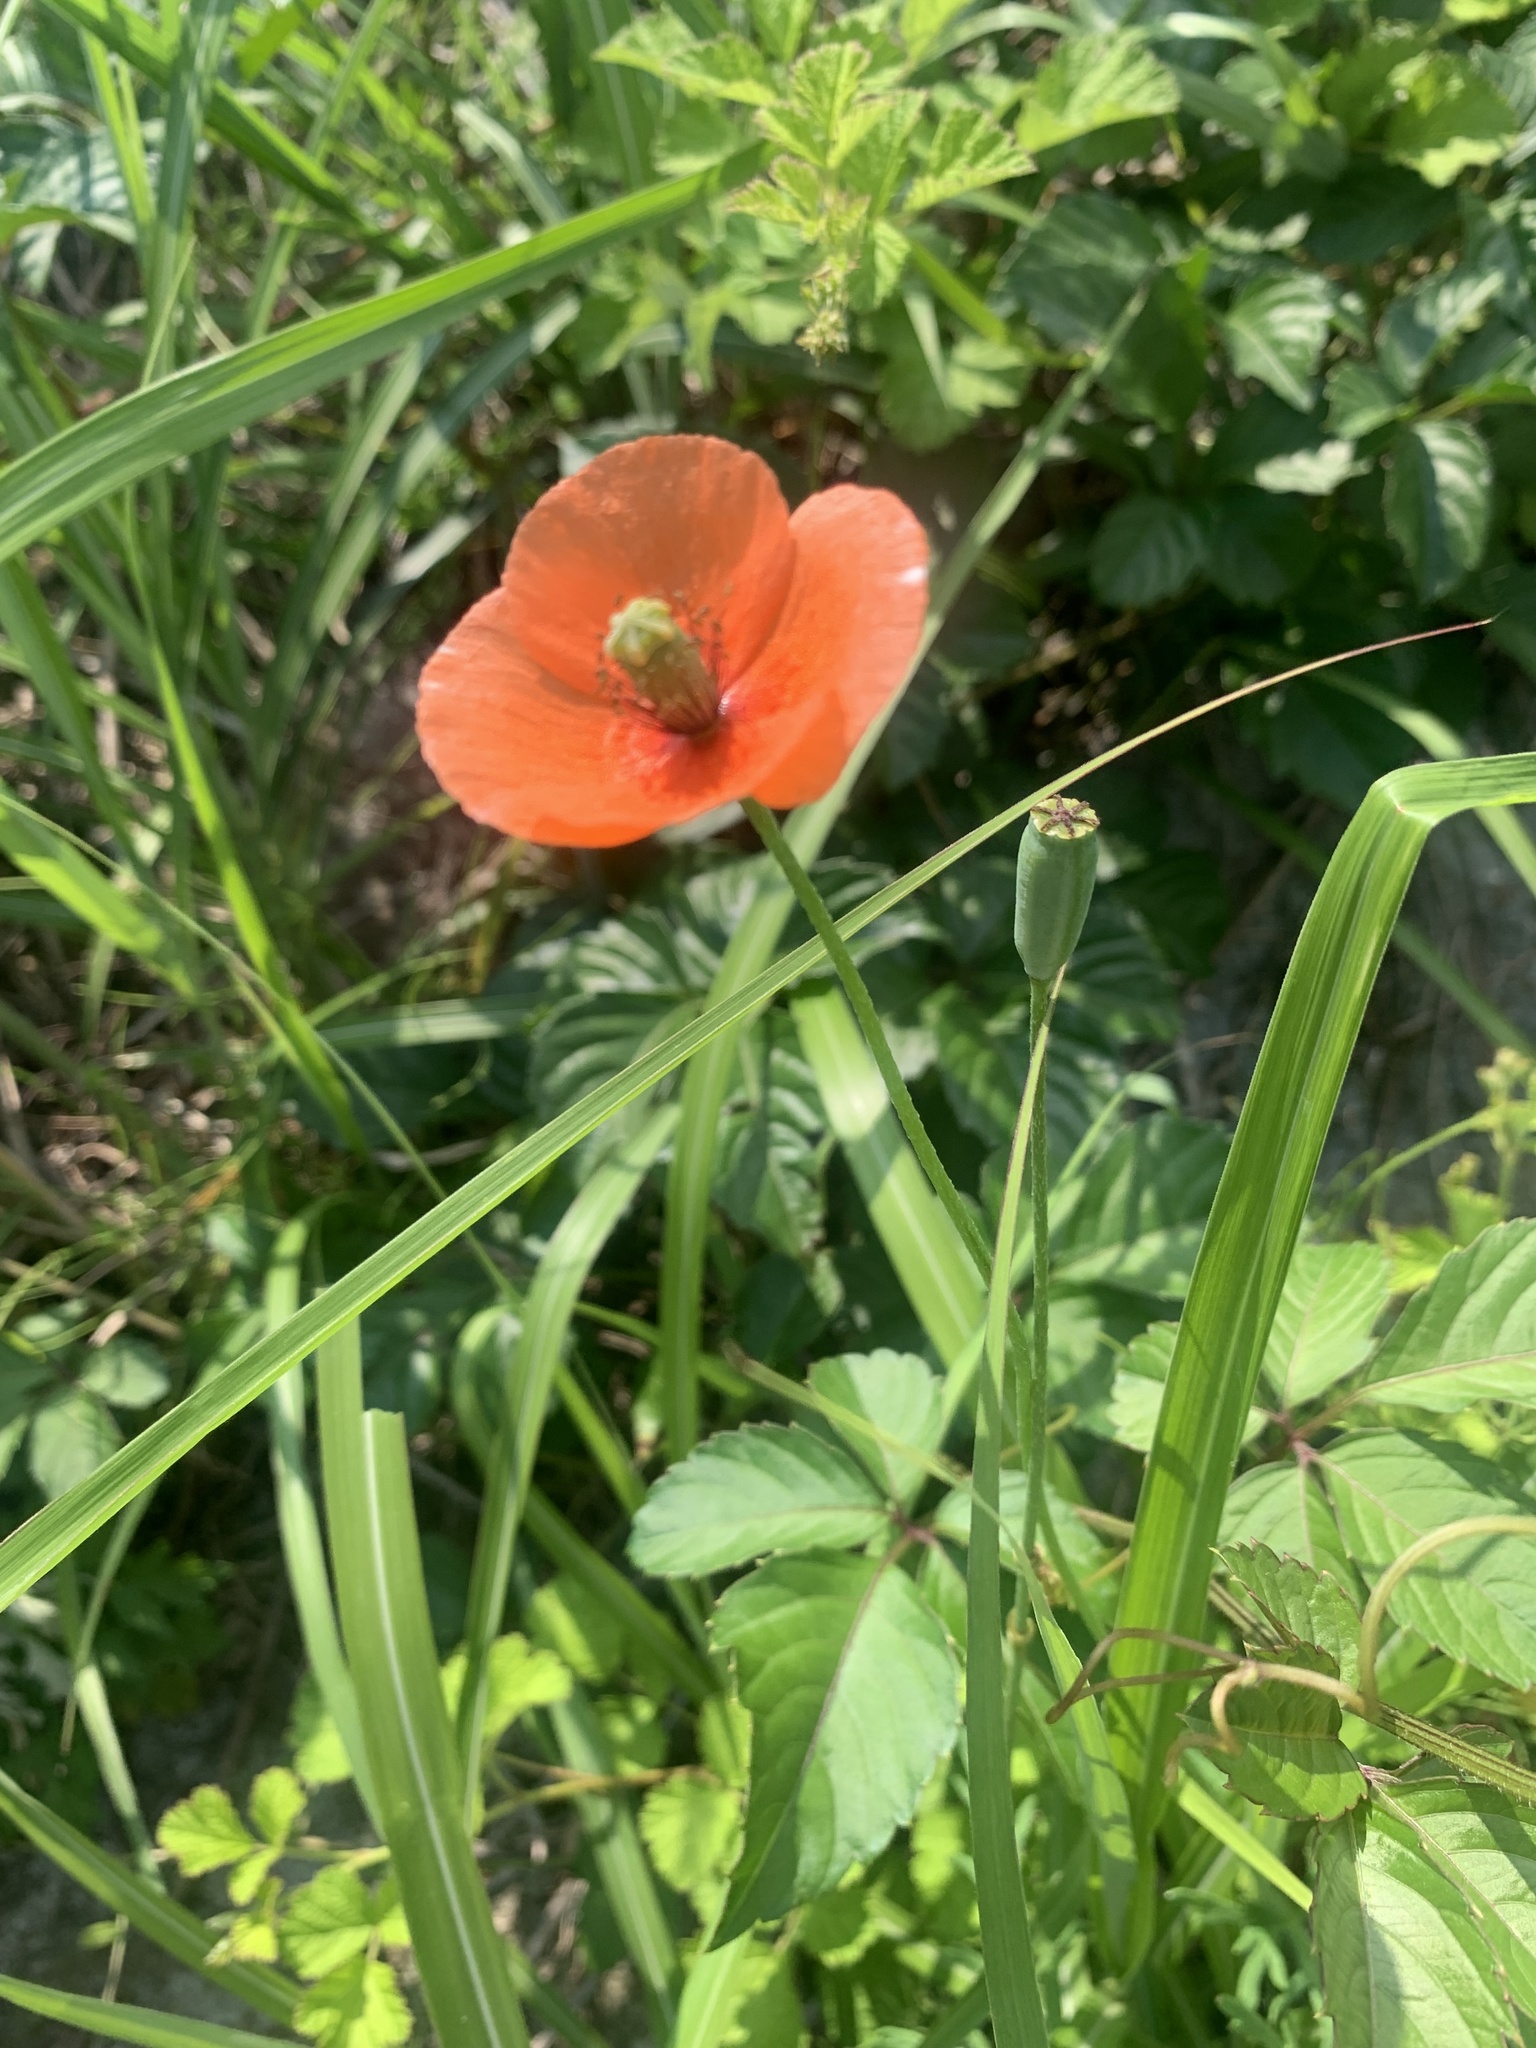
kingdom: Plantae
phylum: Tracheophyta
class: Magnoliopsida
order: Ranunculales
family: Papaveraceae
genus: Papaver
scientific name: Papaver dubium
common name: Long-headed poppy
